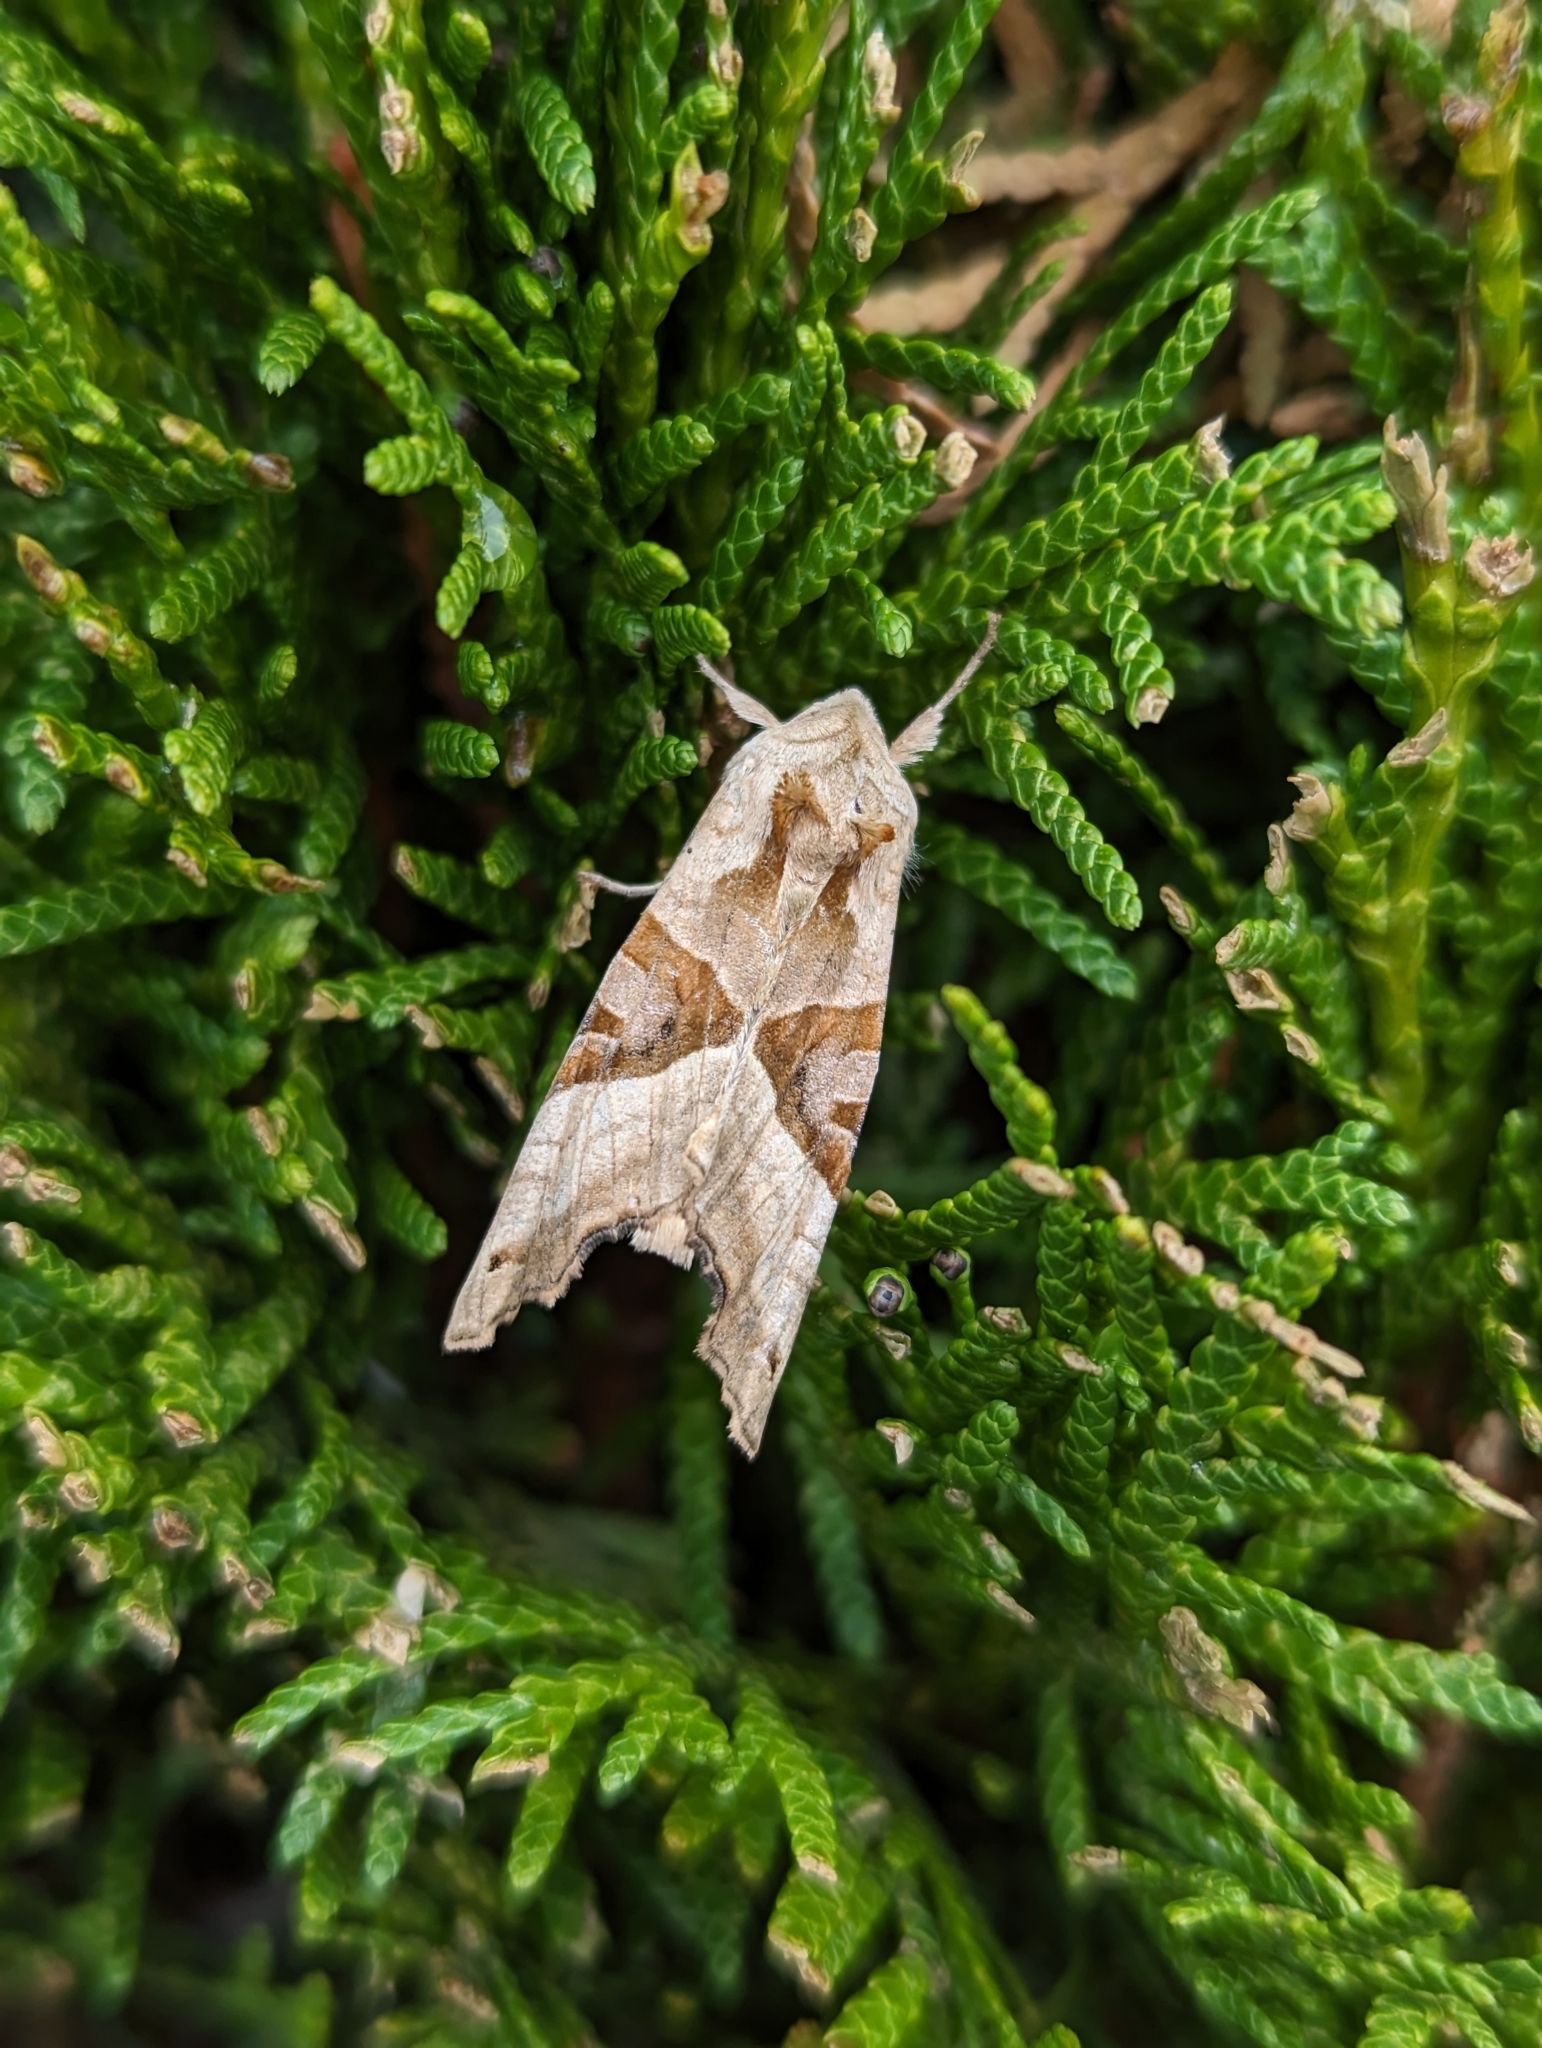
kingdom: Animalia
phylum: Arthropoda
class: Insecta
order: Lepidoptera
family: Noctuidae
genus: Phlogophora
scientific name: Phlogophora meticulosa
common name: Angle shades
